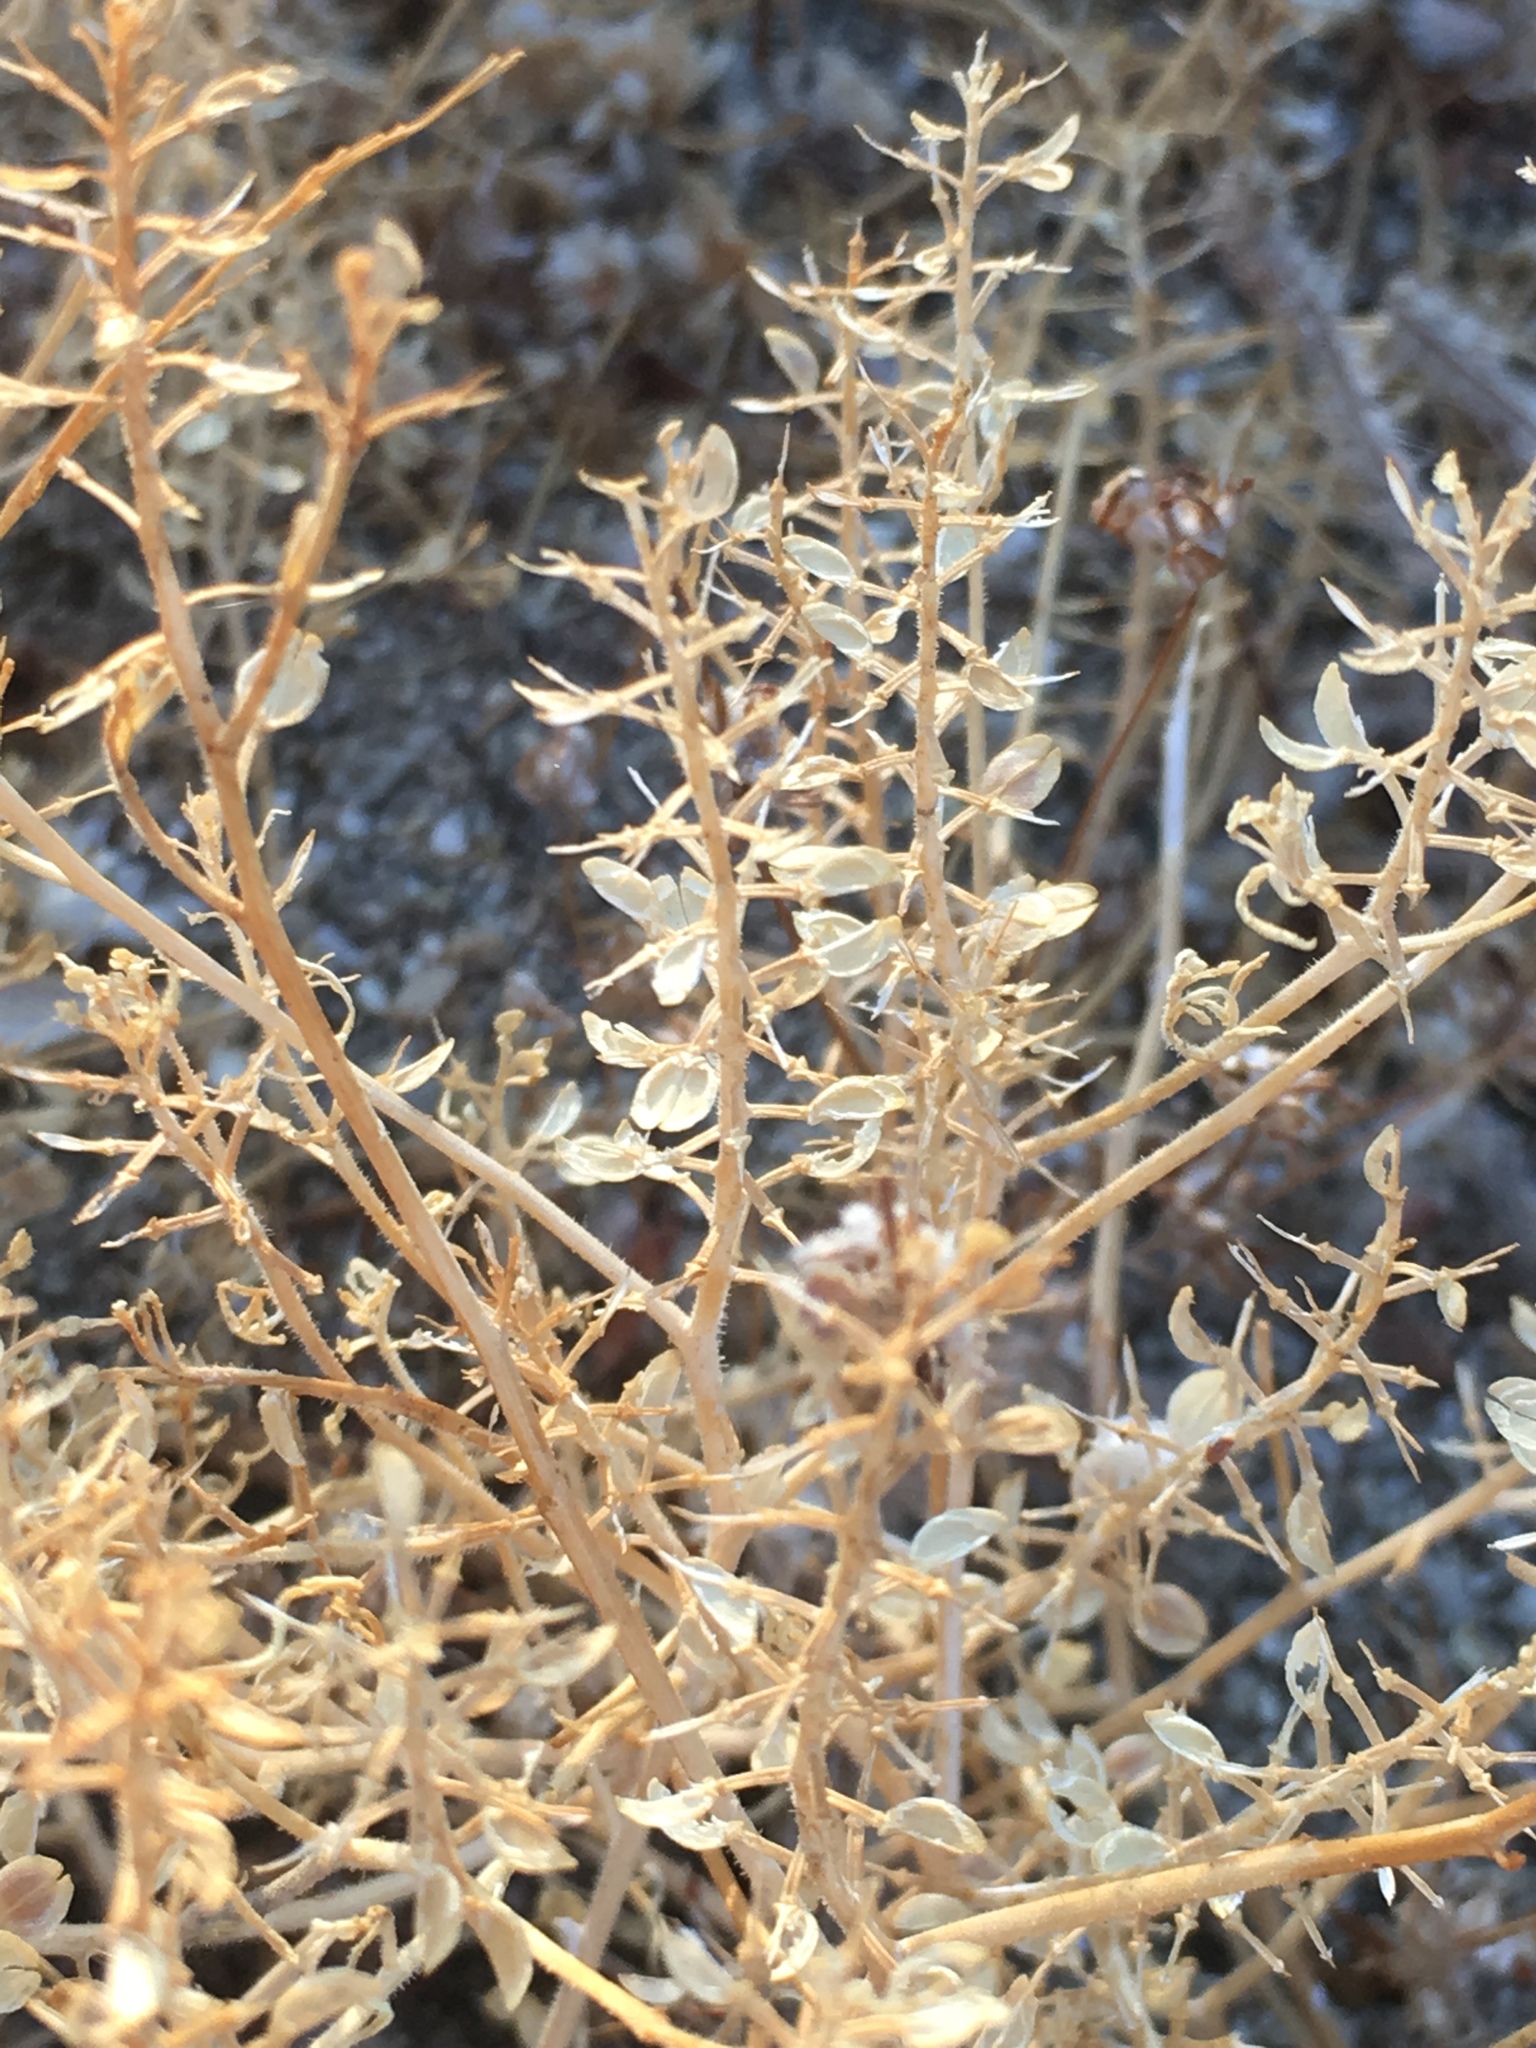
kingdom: Plantae
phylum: Tracheophyta
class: Magnoliopsida
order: Brassicales
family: Brassicaceae
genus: Lepidium
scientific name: Lepidium lasiocarpum
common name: Hairy-pod pepperwort
